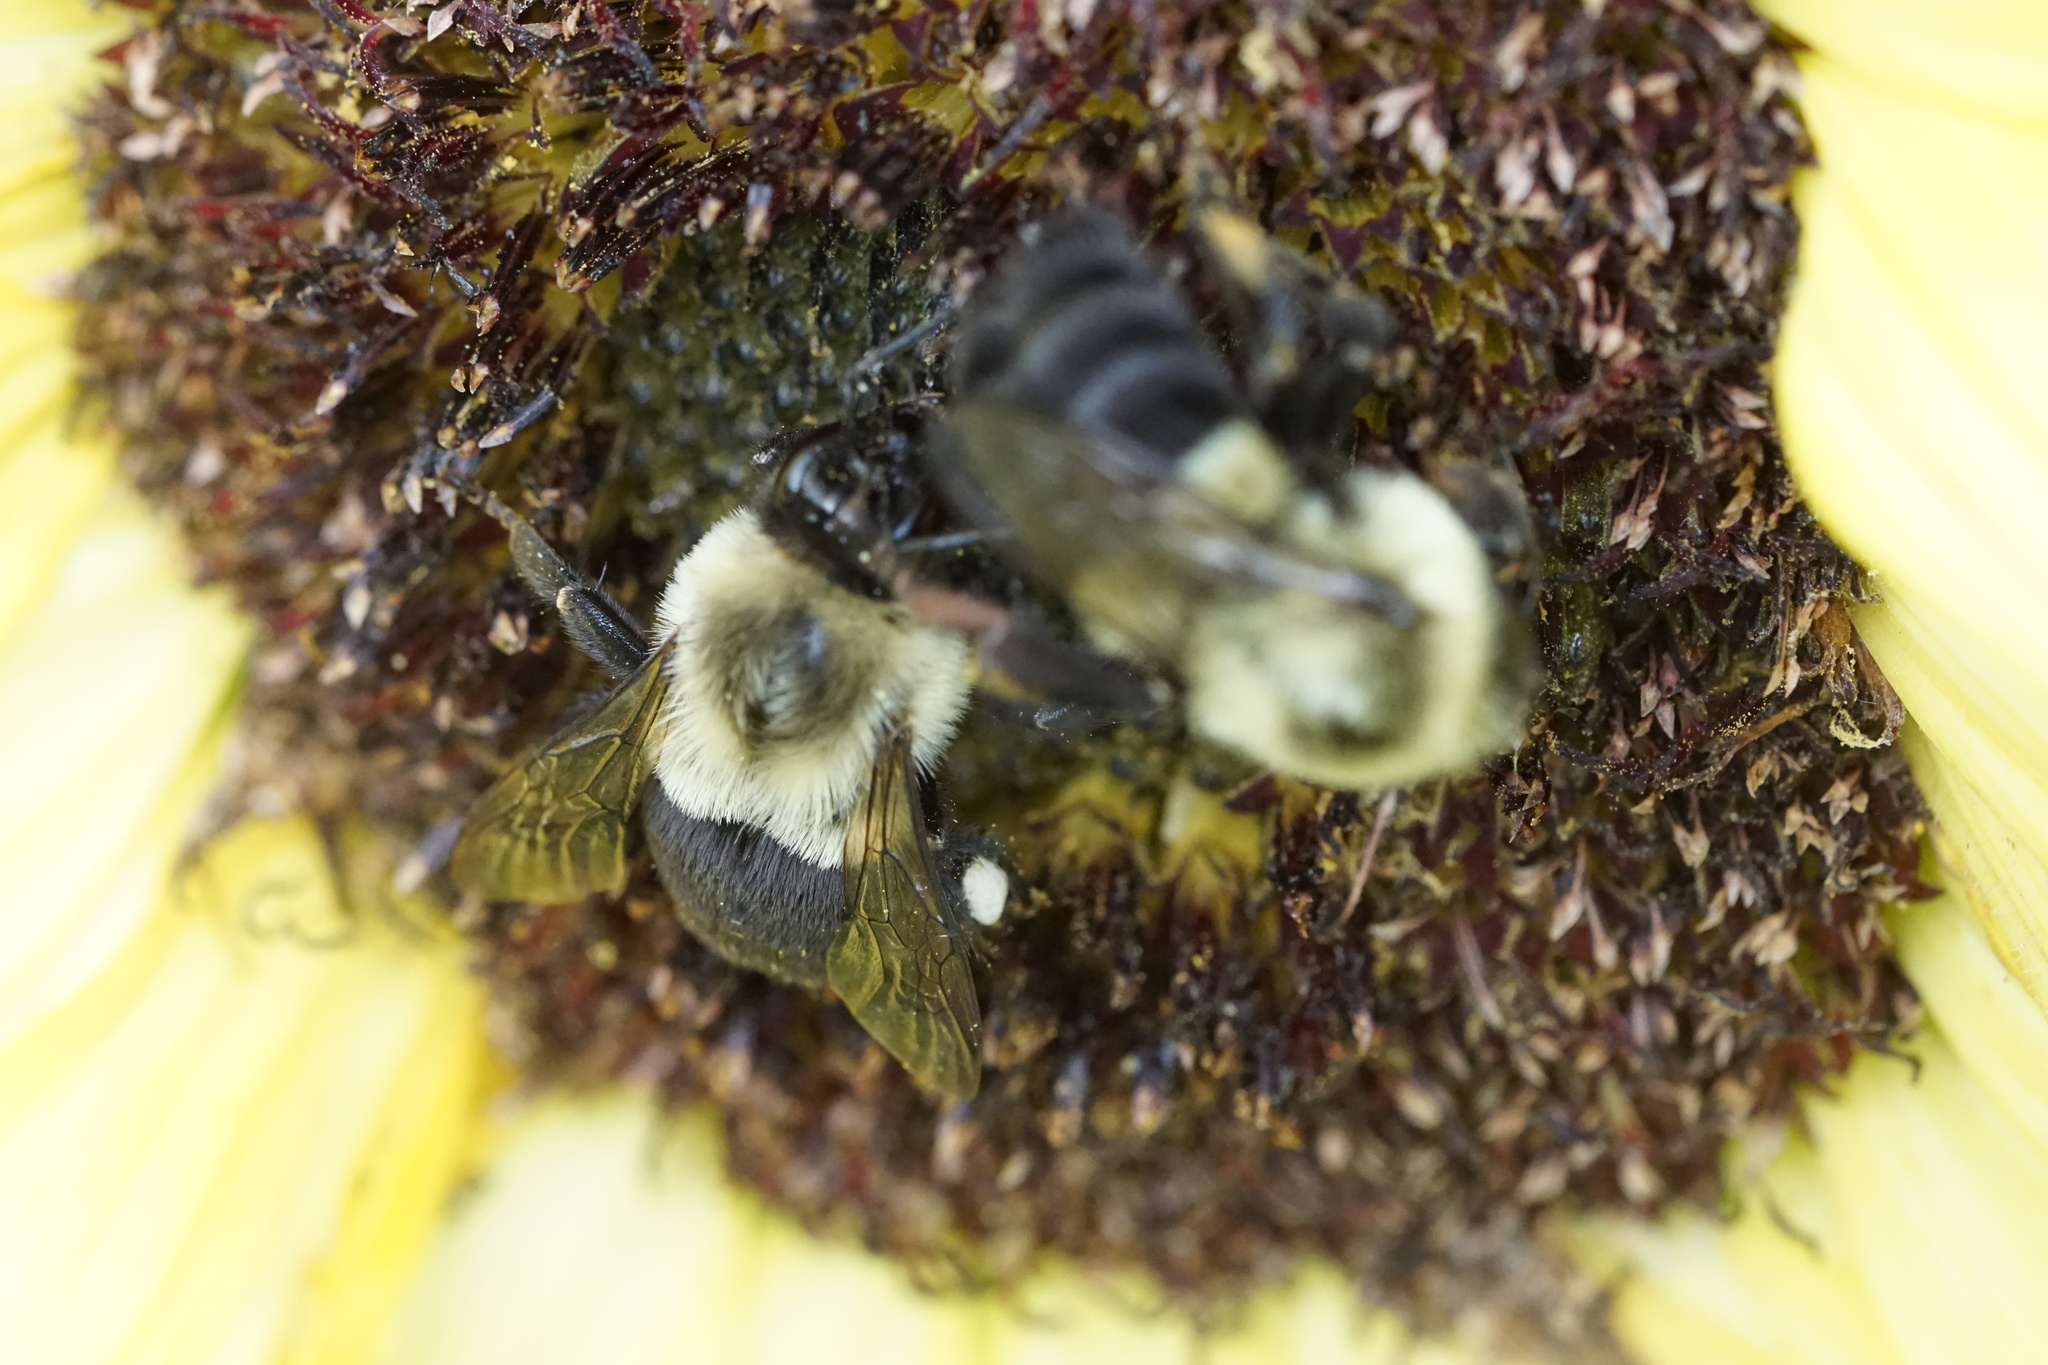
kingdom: Animalia
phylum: Arthropoda
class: Insecta
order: Hymenoptera
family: Apidae
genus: Bombus
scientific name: Bombus impatiens
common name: Common eastern bumble bee
